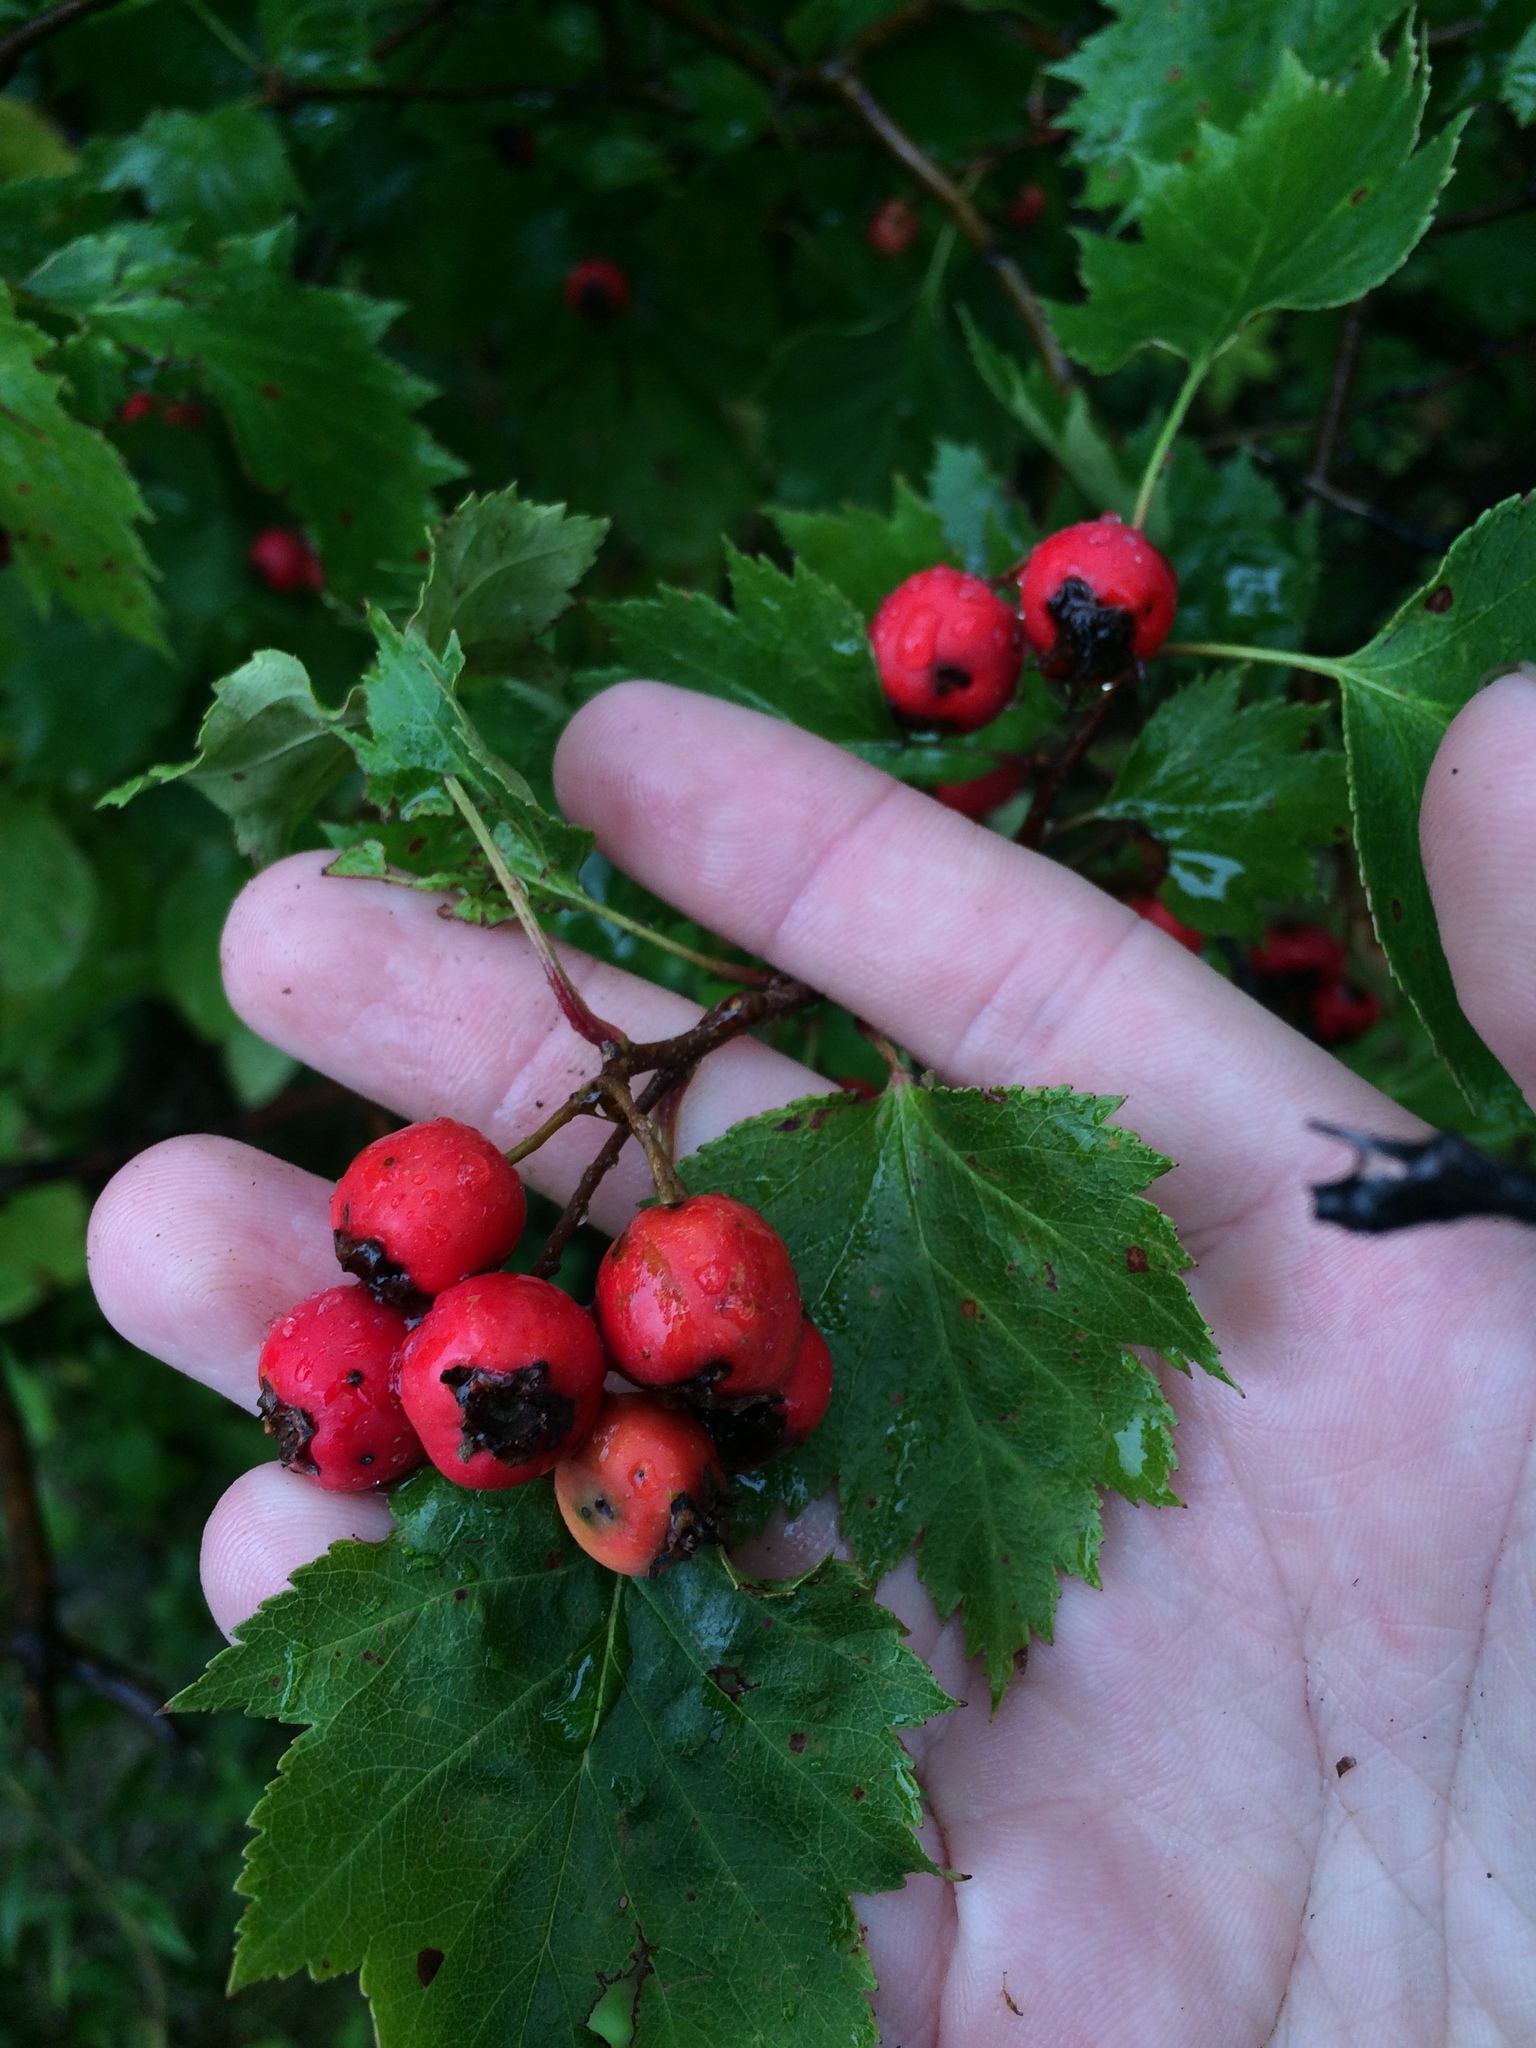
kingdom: Plantae
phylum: Tracheophyta
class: Magnoliopsida
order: Rosales
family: Rosaceae
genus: Crataegus
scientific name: Crataegus flabellata
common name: Bosc's hawthorn
